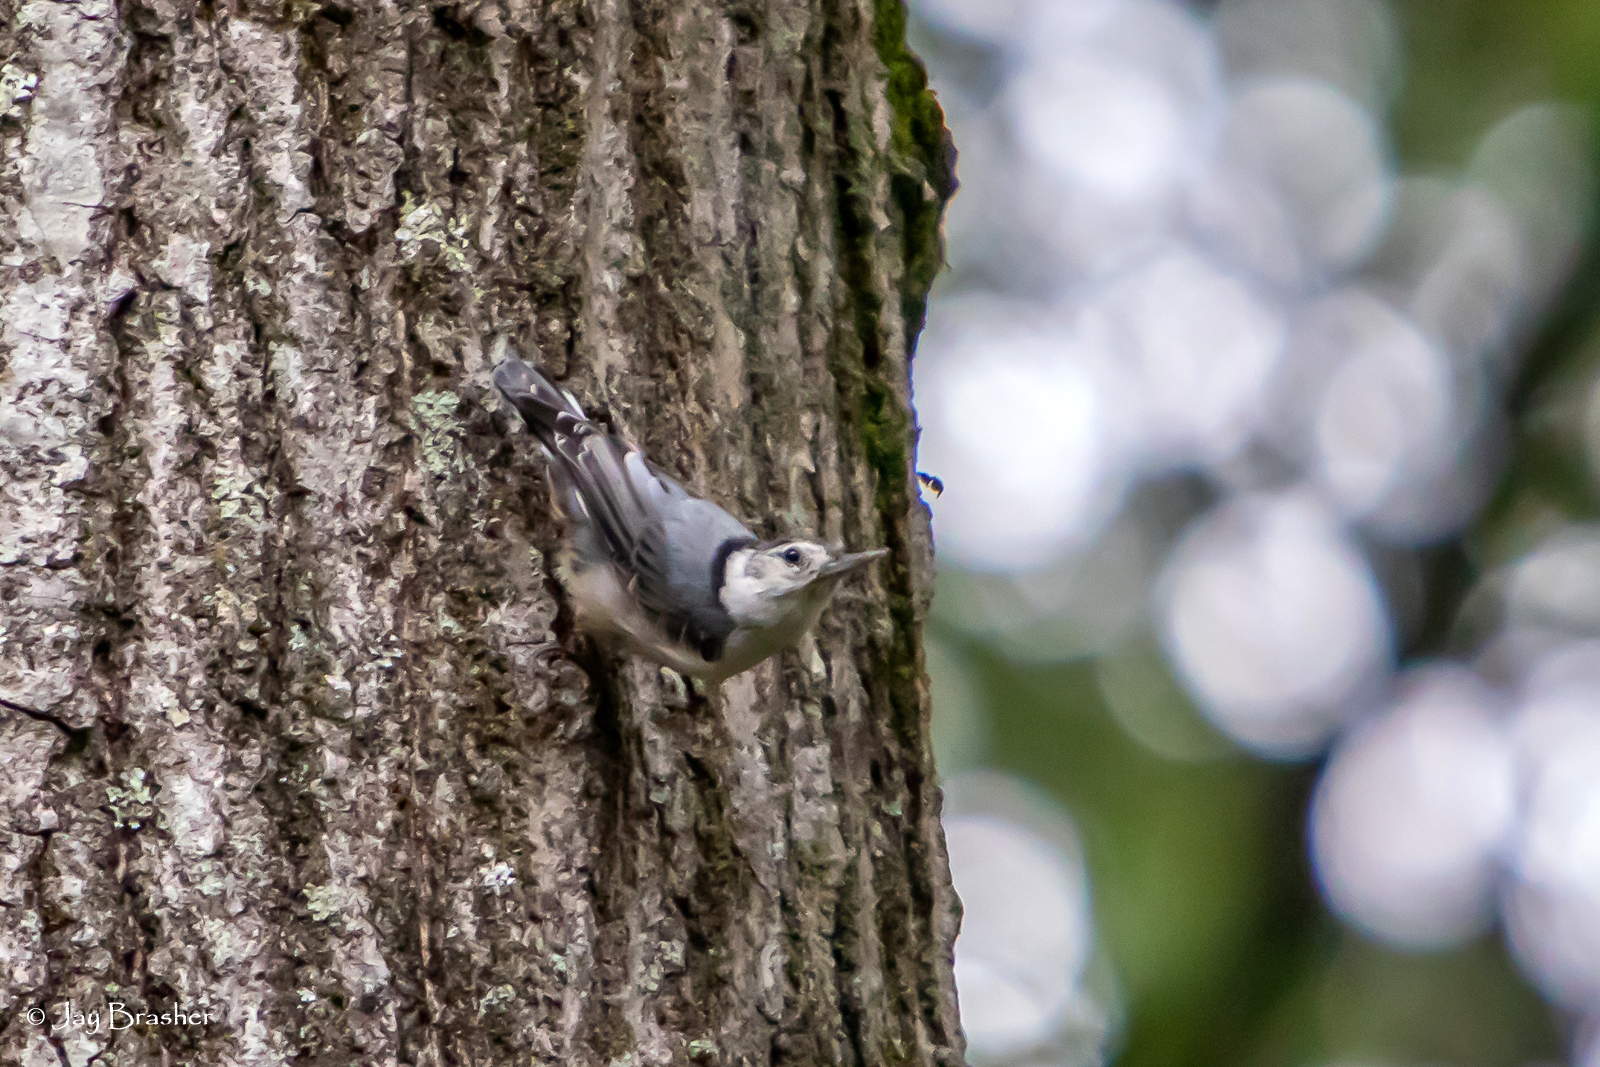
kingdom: Animalia
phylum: Chordata
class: Aves
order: Passeriformes
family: Sittidae
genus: Sitta
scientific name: Sitta carolinensis
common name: White-breasted nuthatch
